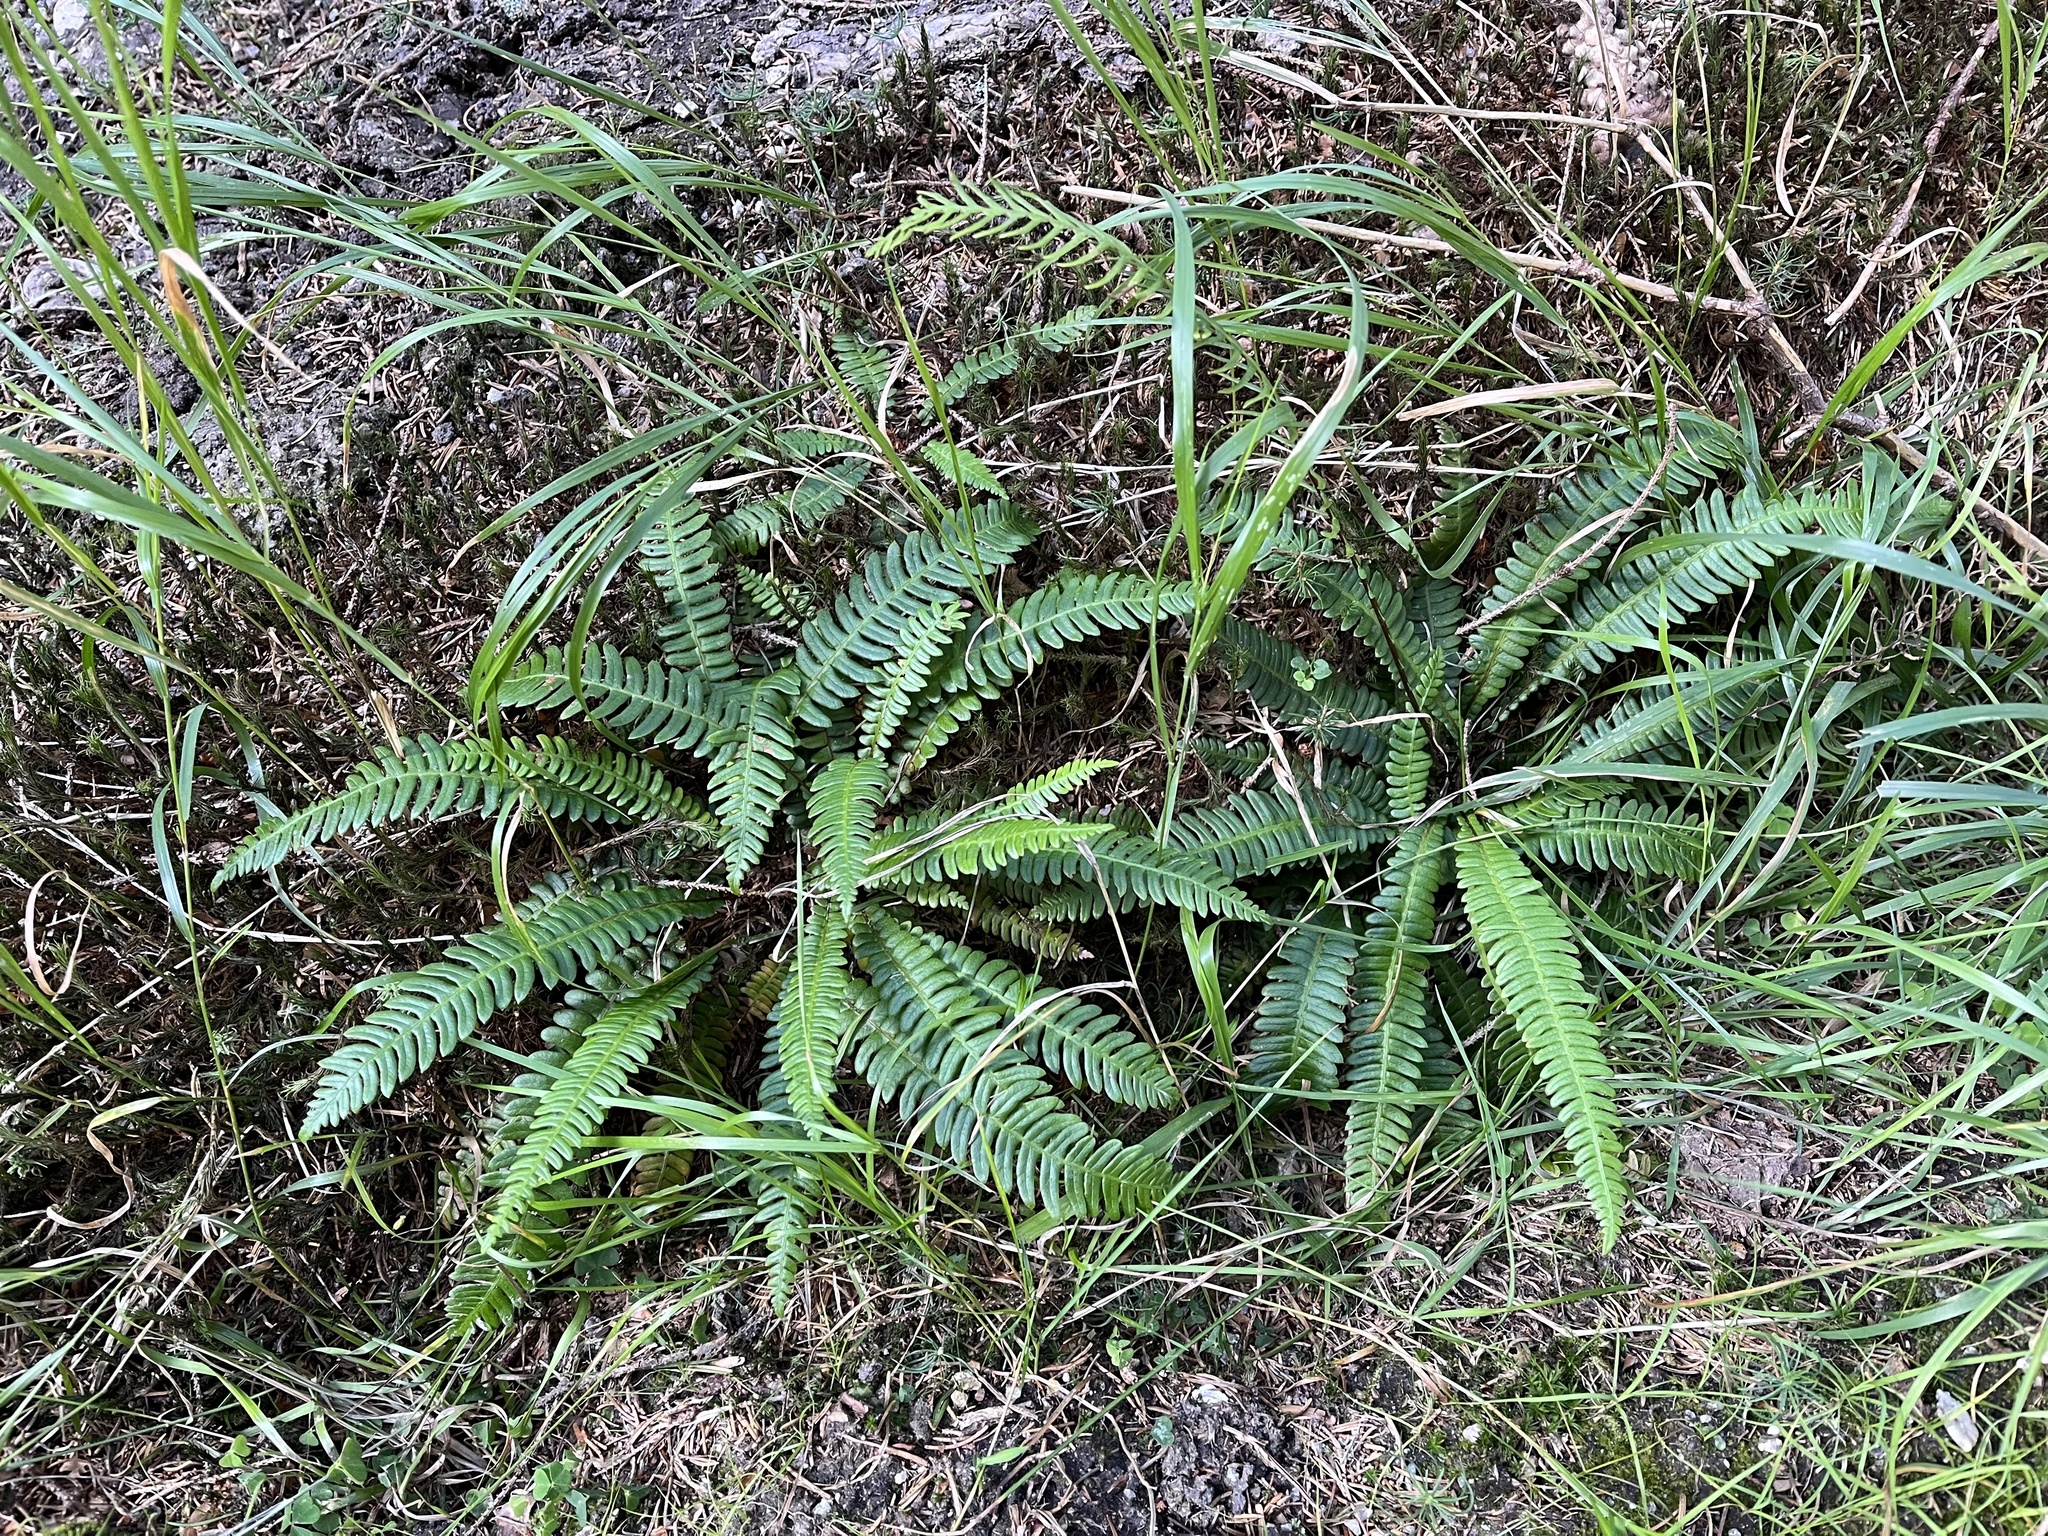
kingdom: Plantae
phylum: Tracheophyta
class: Polypodiopsida
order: Polypodiales
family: Blechnaceae
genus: Struthiopteris
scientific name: Struthiopteris spicant
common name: Deer fern
